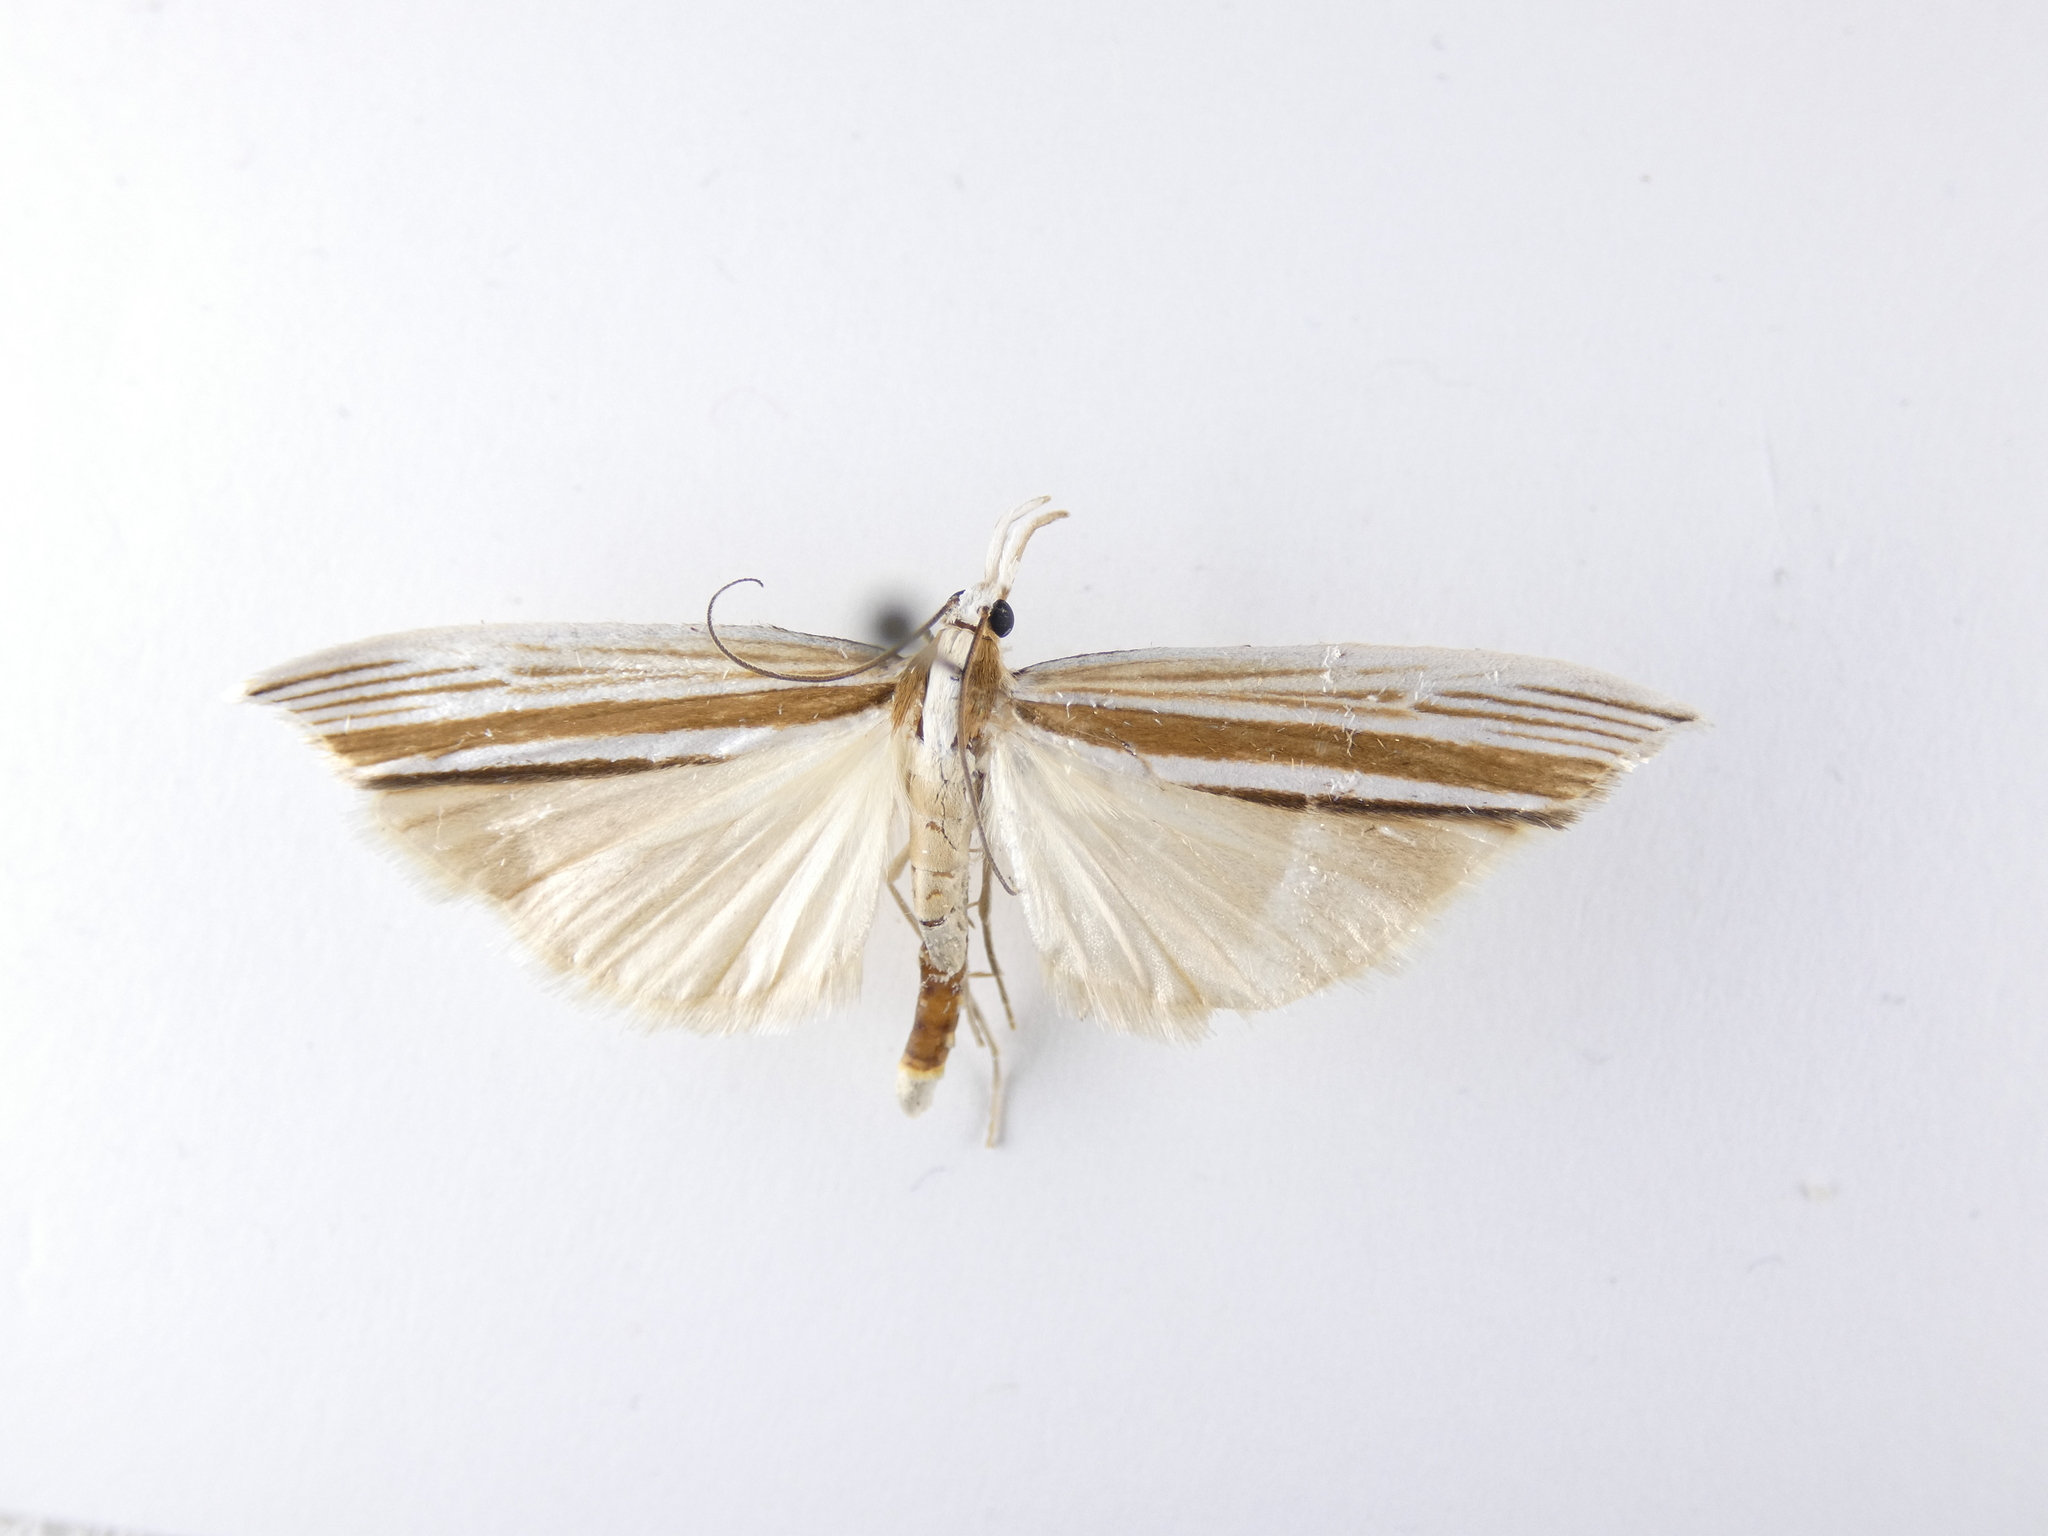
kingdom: Animalia
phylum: Arthropoda
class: Insecta
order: Lepidoptera
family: Crambidae
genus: Orocrambus
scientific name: Orocrambus angustipennis
